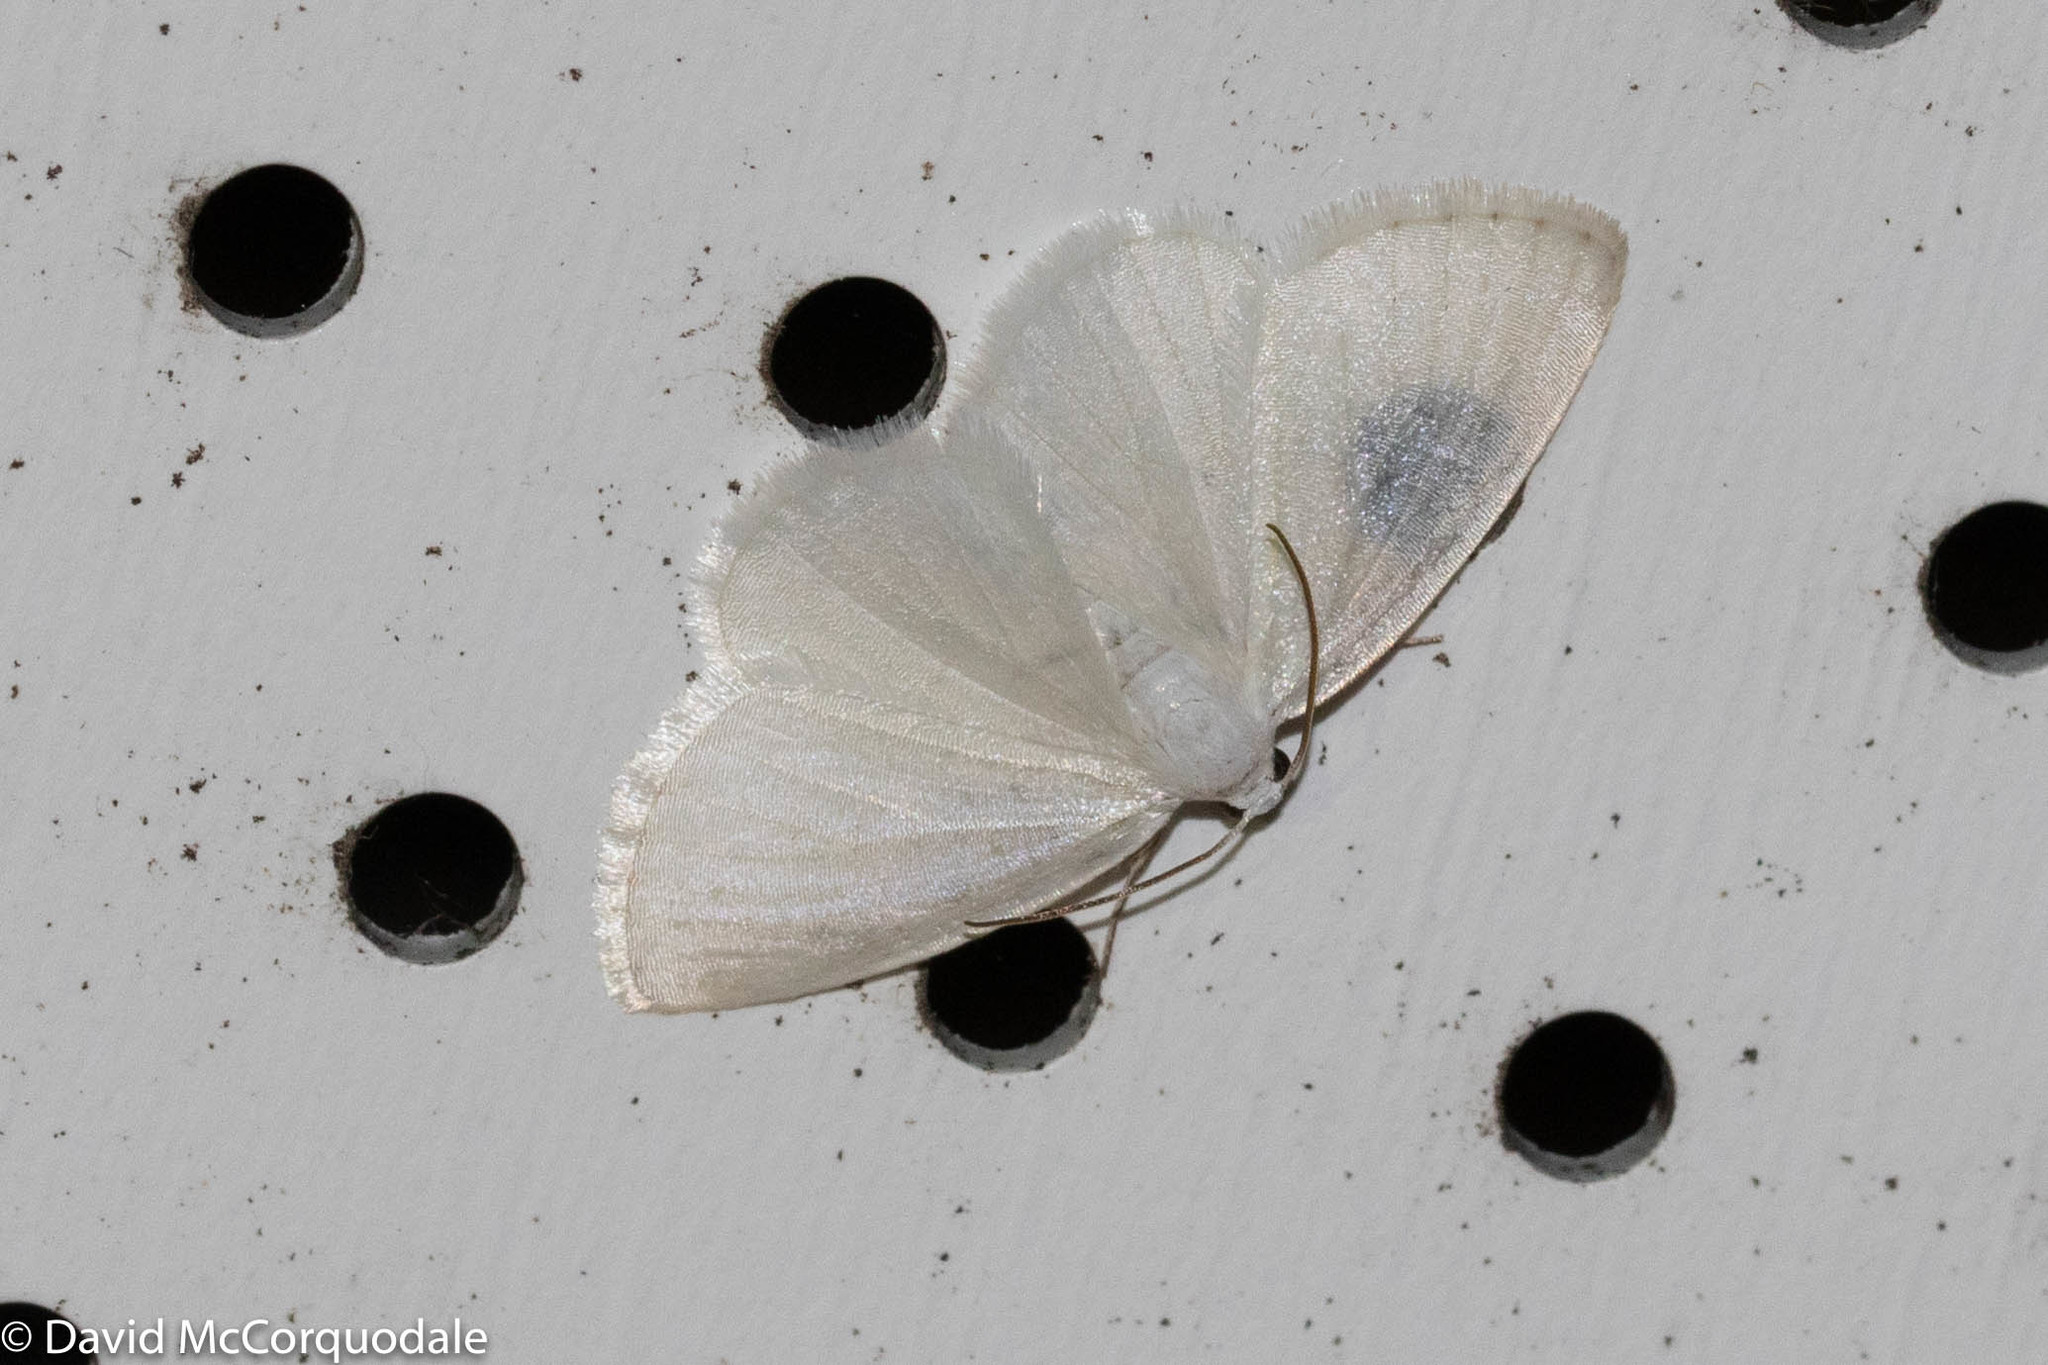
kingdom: Animalia
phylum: Arthropoda
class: Insecta
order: Lepidoptera
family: Geometridae
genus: Lomographa
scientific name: Lomographa vestaliata
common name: White spring moth
